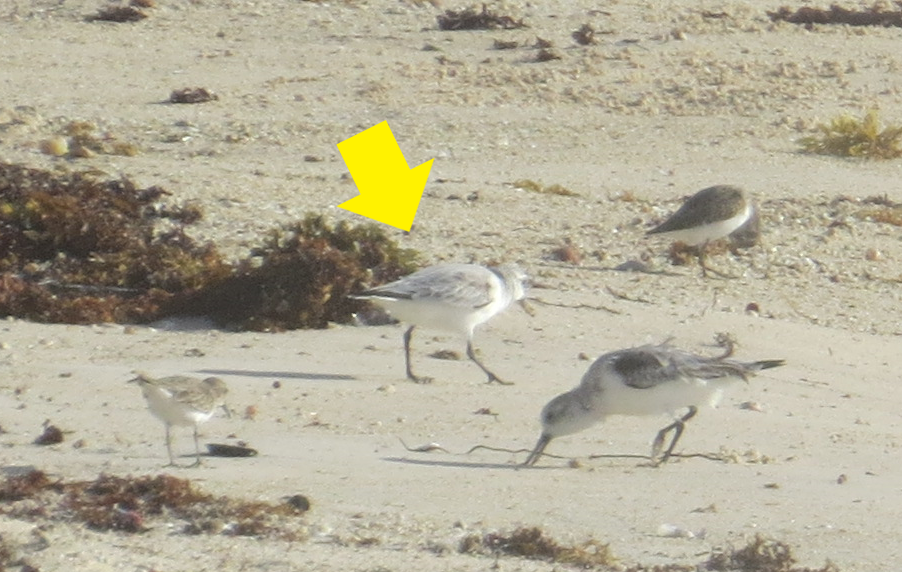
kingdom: Animalia
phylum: Chordata
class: Aves
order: Charadriiformes
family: Scolopacidae
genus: Calidris
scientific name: Calidris alba
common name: Sanderling
